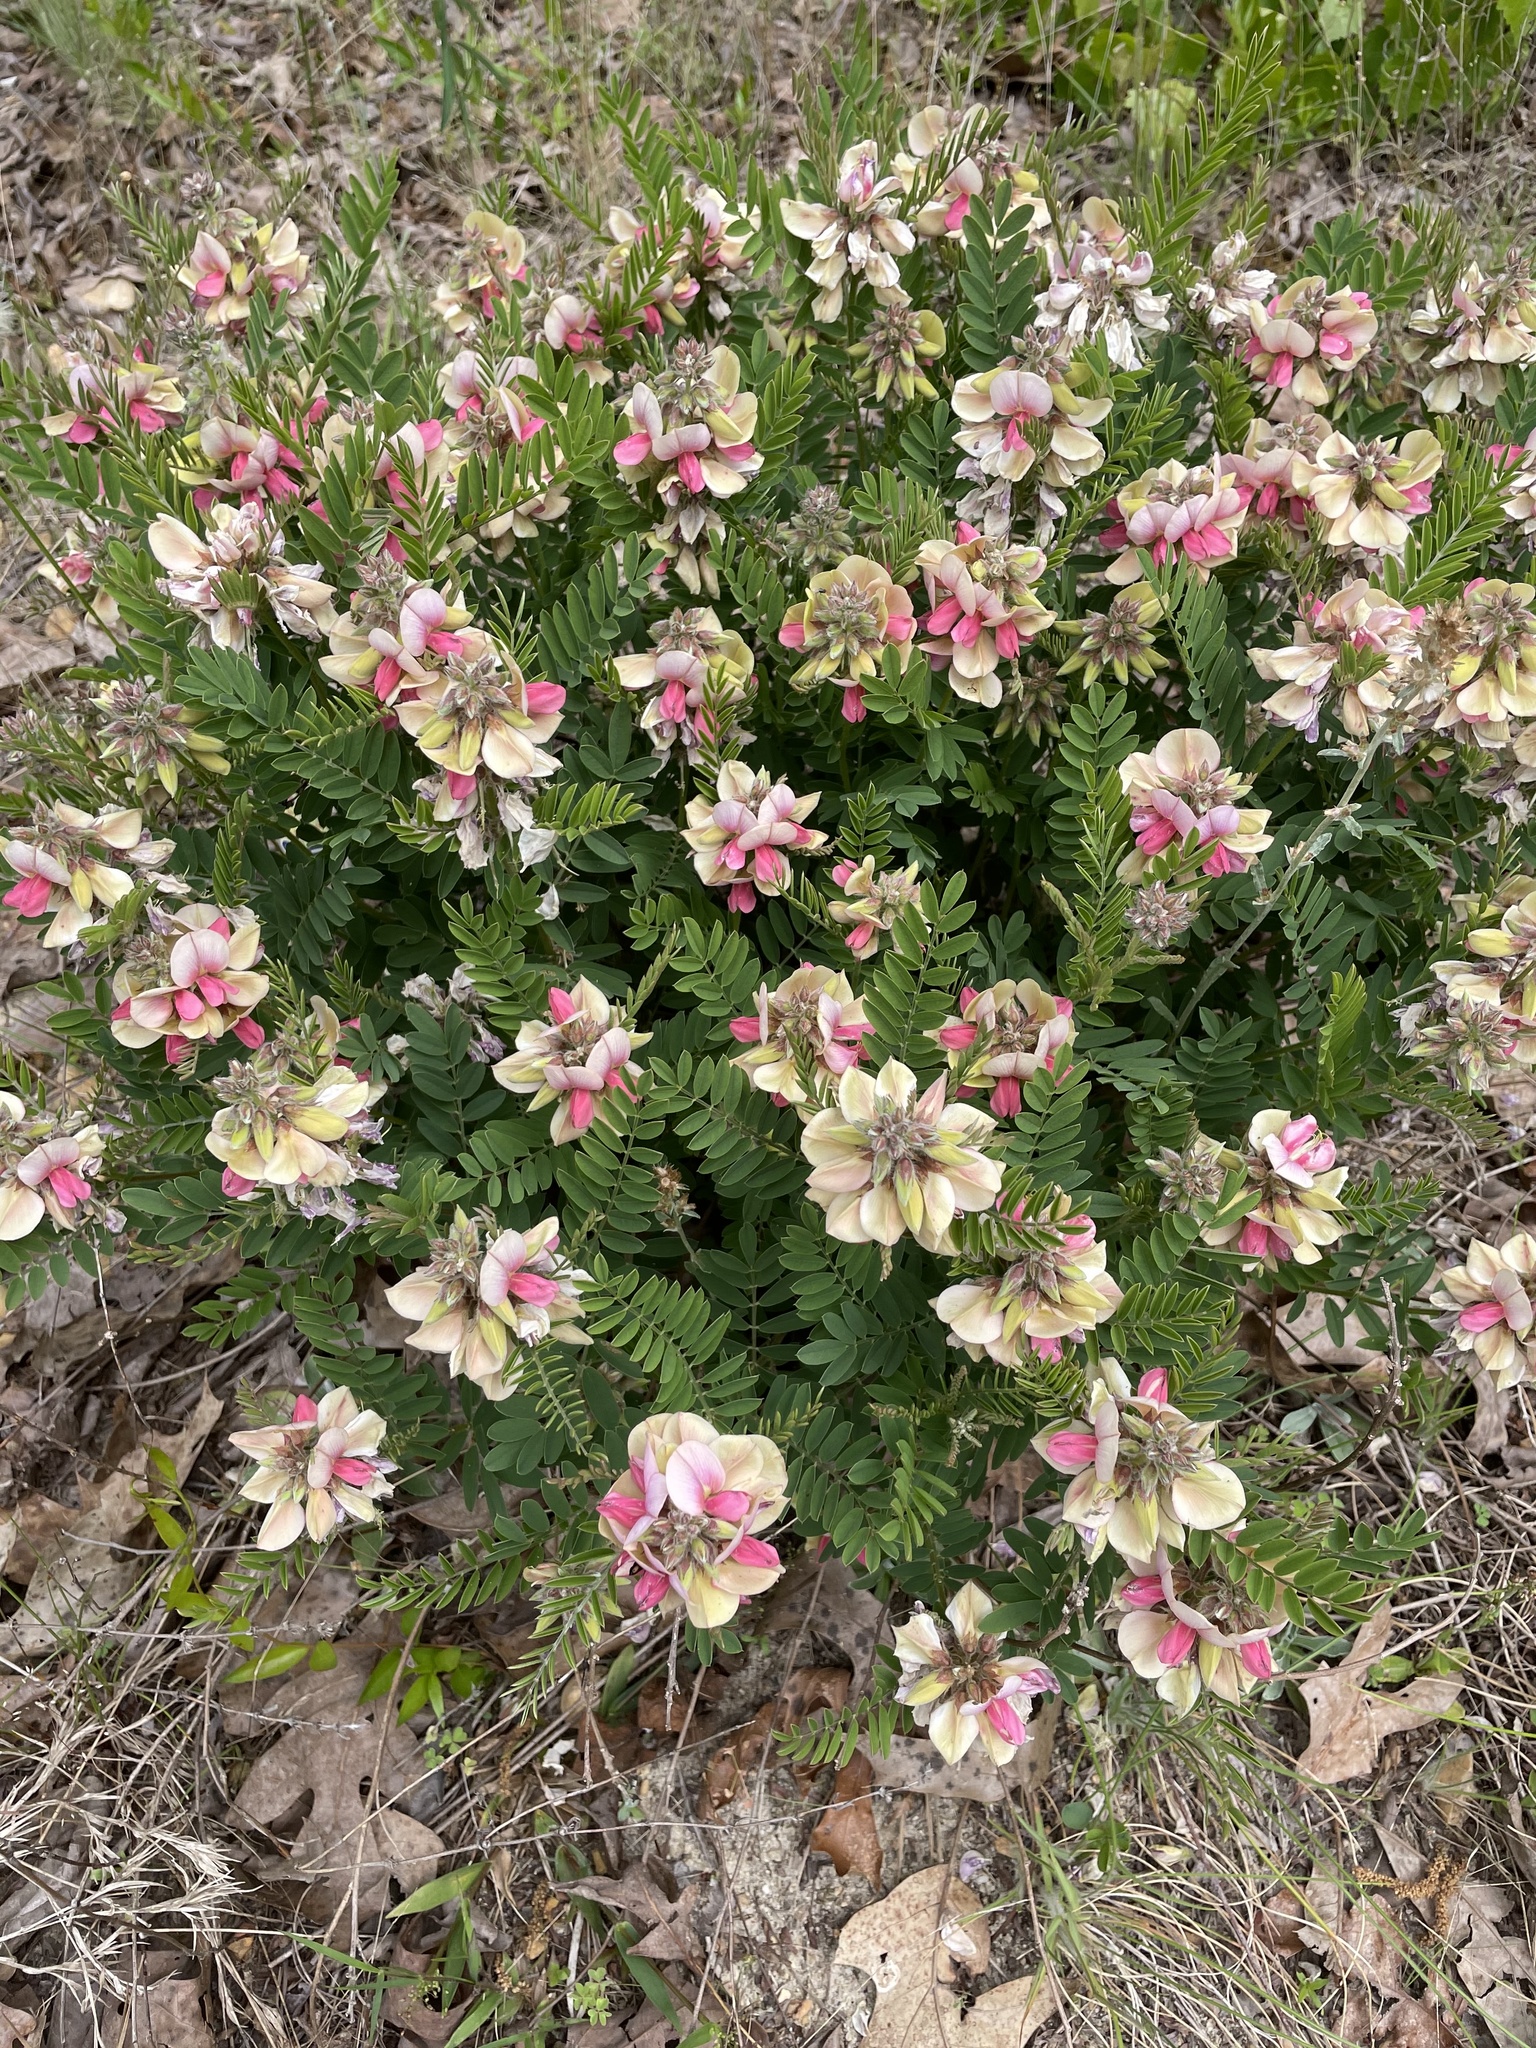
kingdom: Plantae
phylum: Tracheophyta
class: Magnoliopsida
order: Fabales
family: Fabaceae
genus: Tephrosia
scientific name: Tephrosia virginiana
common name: Rabbit-pea
